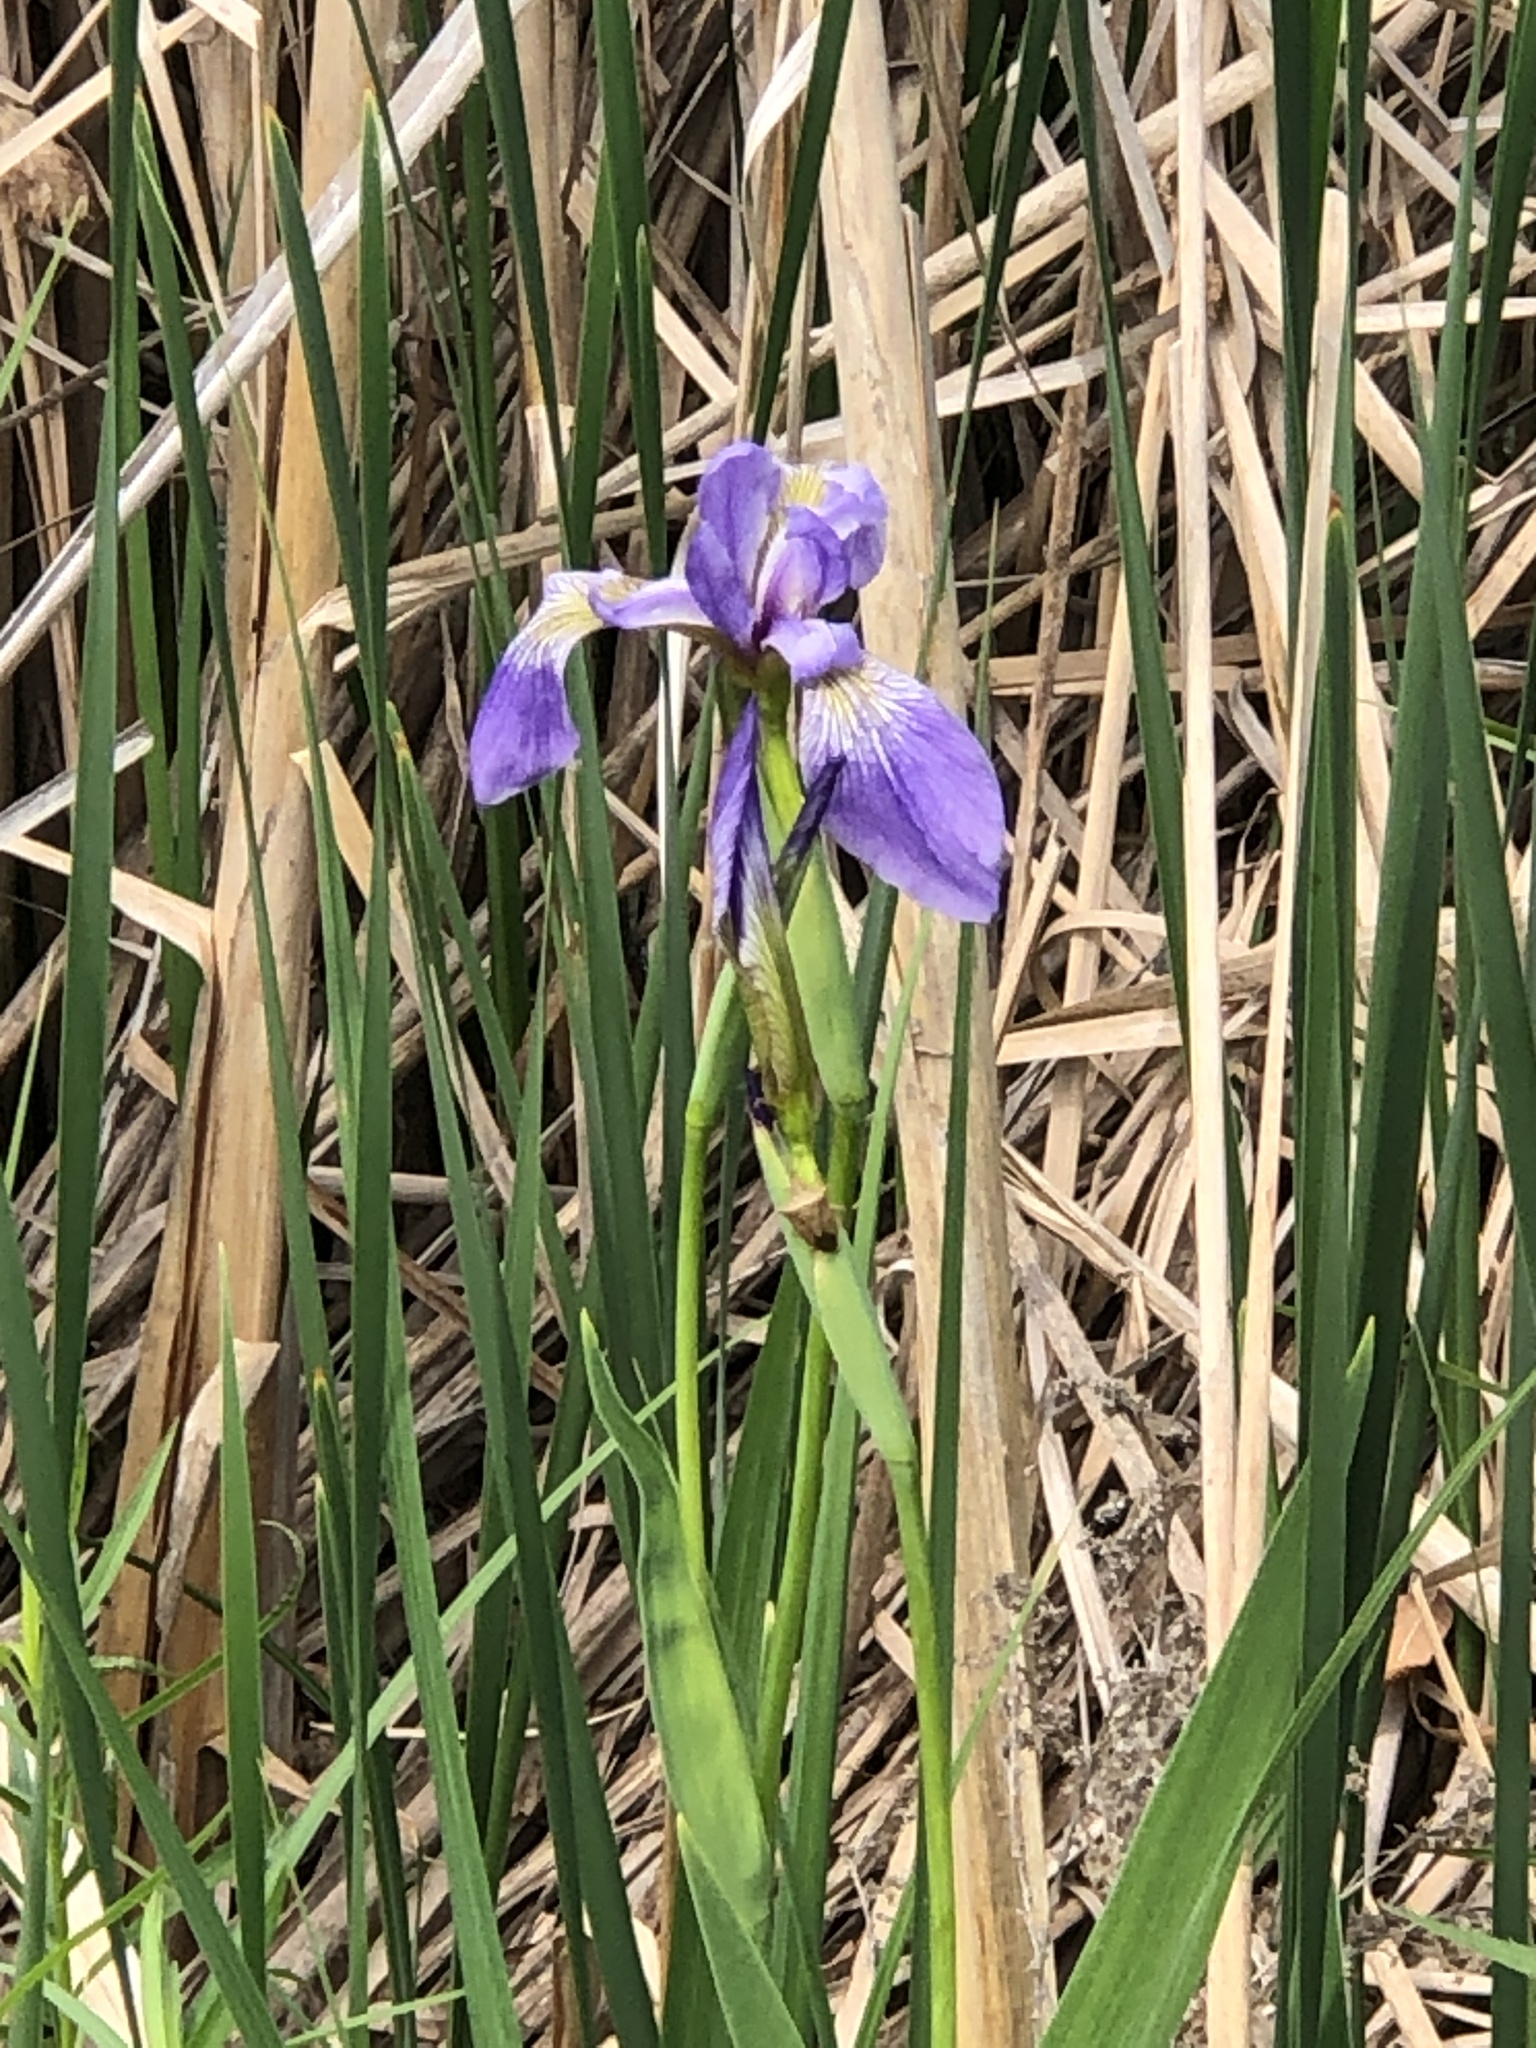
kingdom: Plantae
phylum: Tracheophyta
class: Liliopsida
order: Asparagales
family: Iridaceae
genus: Iris
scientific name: Iris versicolor
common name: Purple iris
